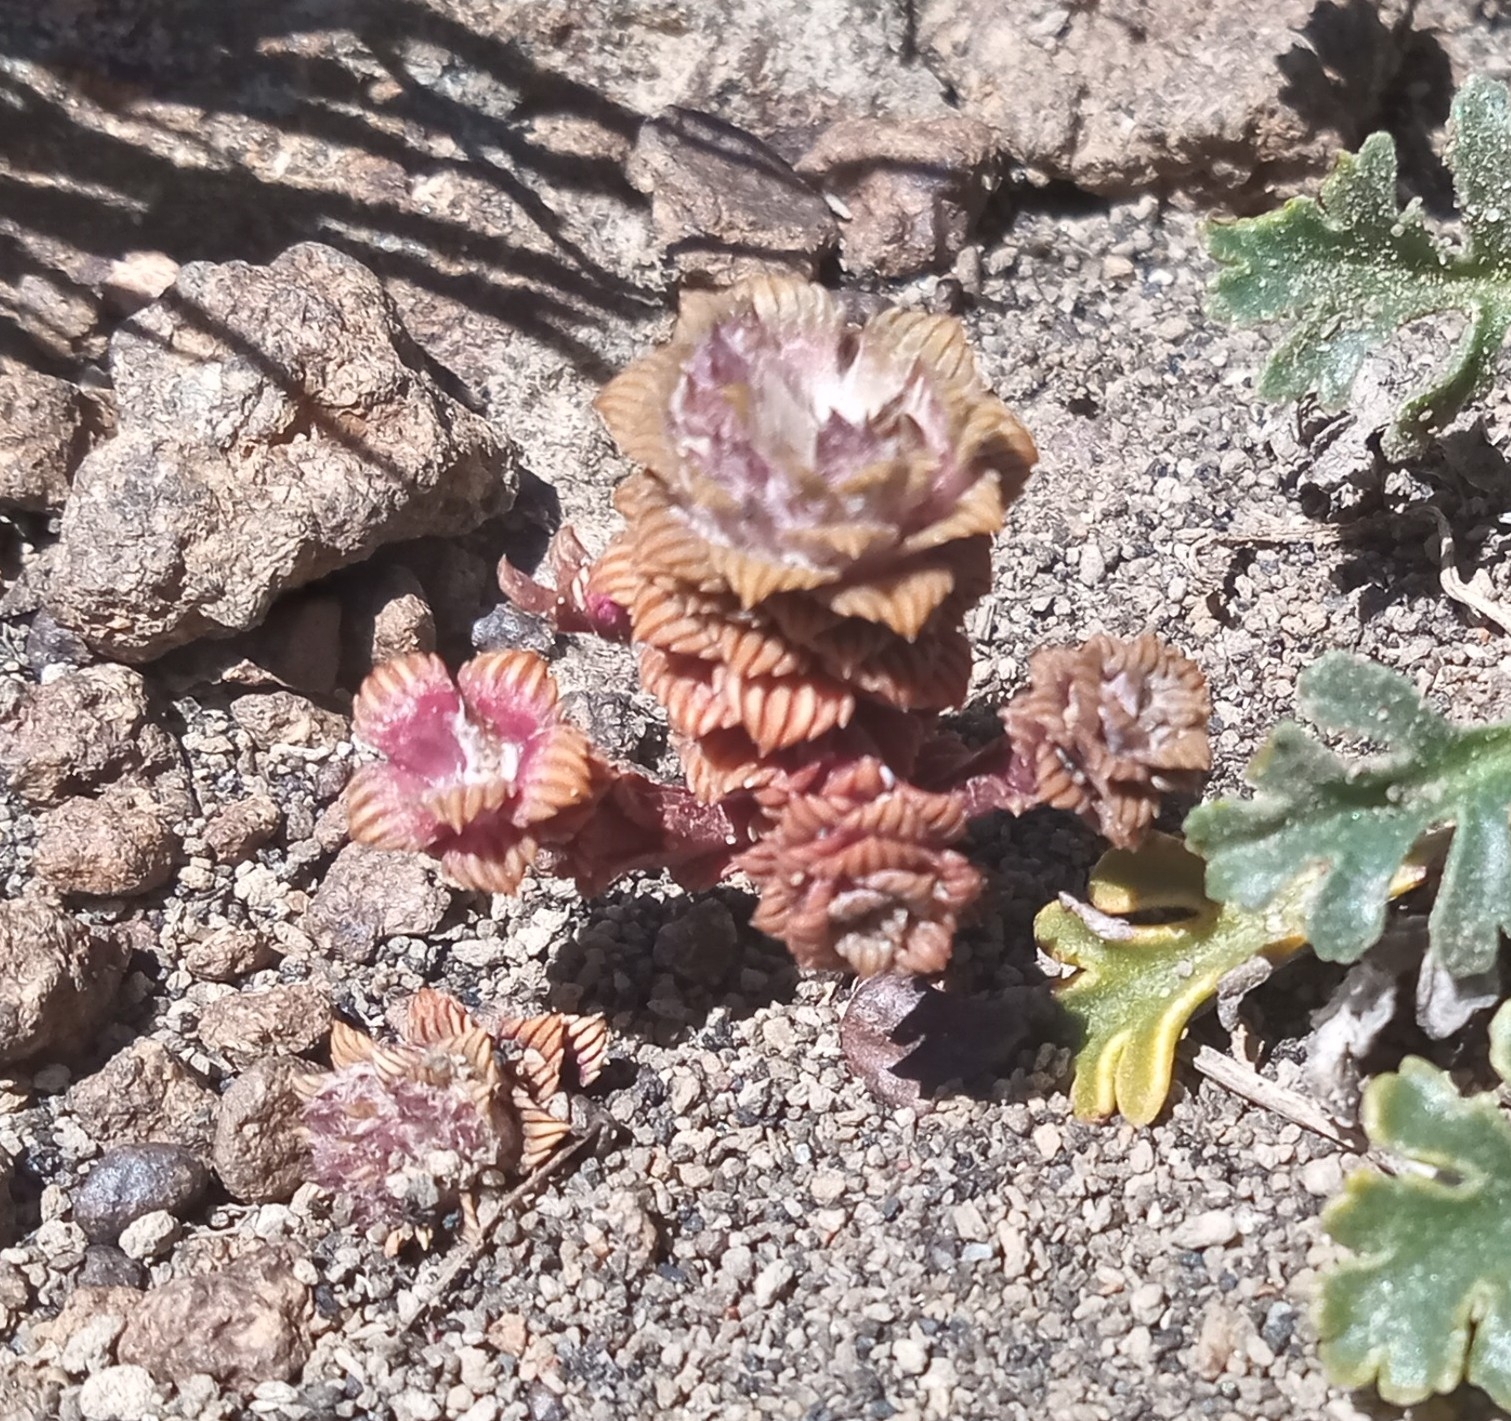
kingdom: Plantae
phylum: Tracheophyta
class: Magnoliopsida
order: Asterales
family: Asteraceae
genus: Nassauvia
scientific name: Nassauvia lagascae
